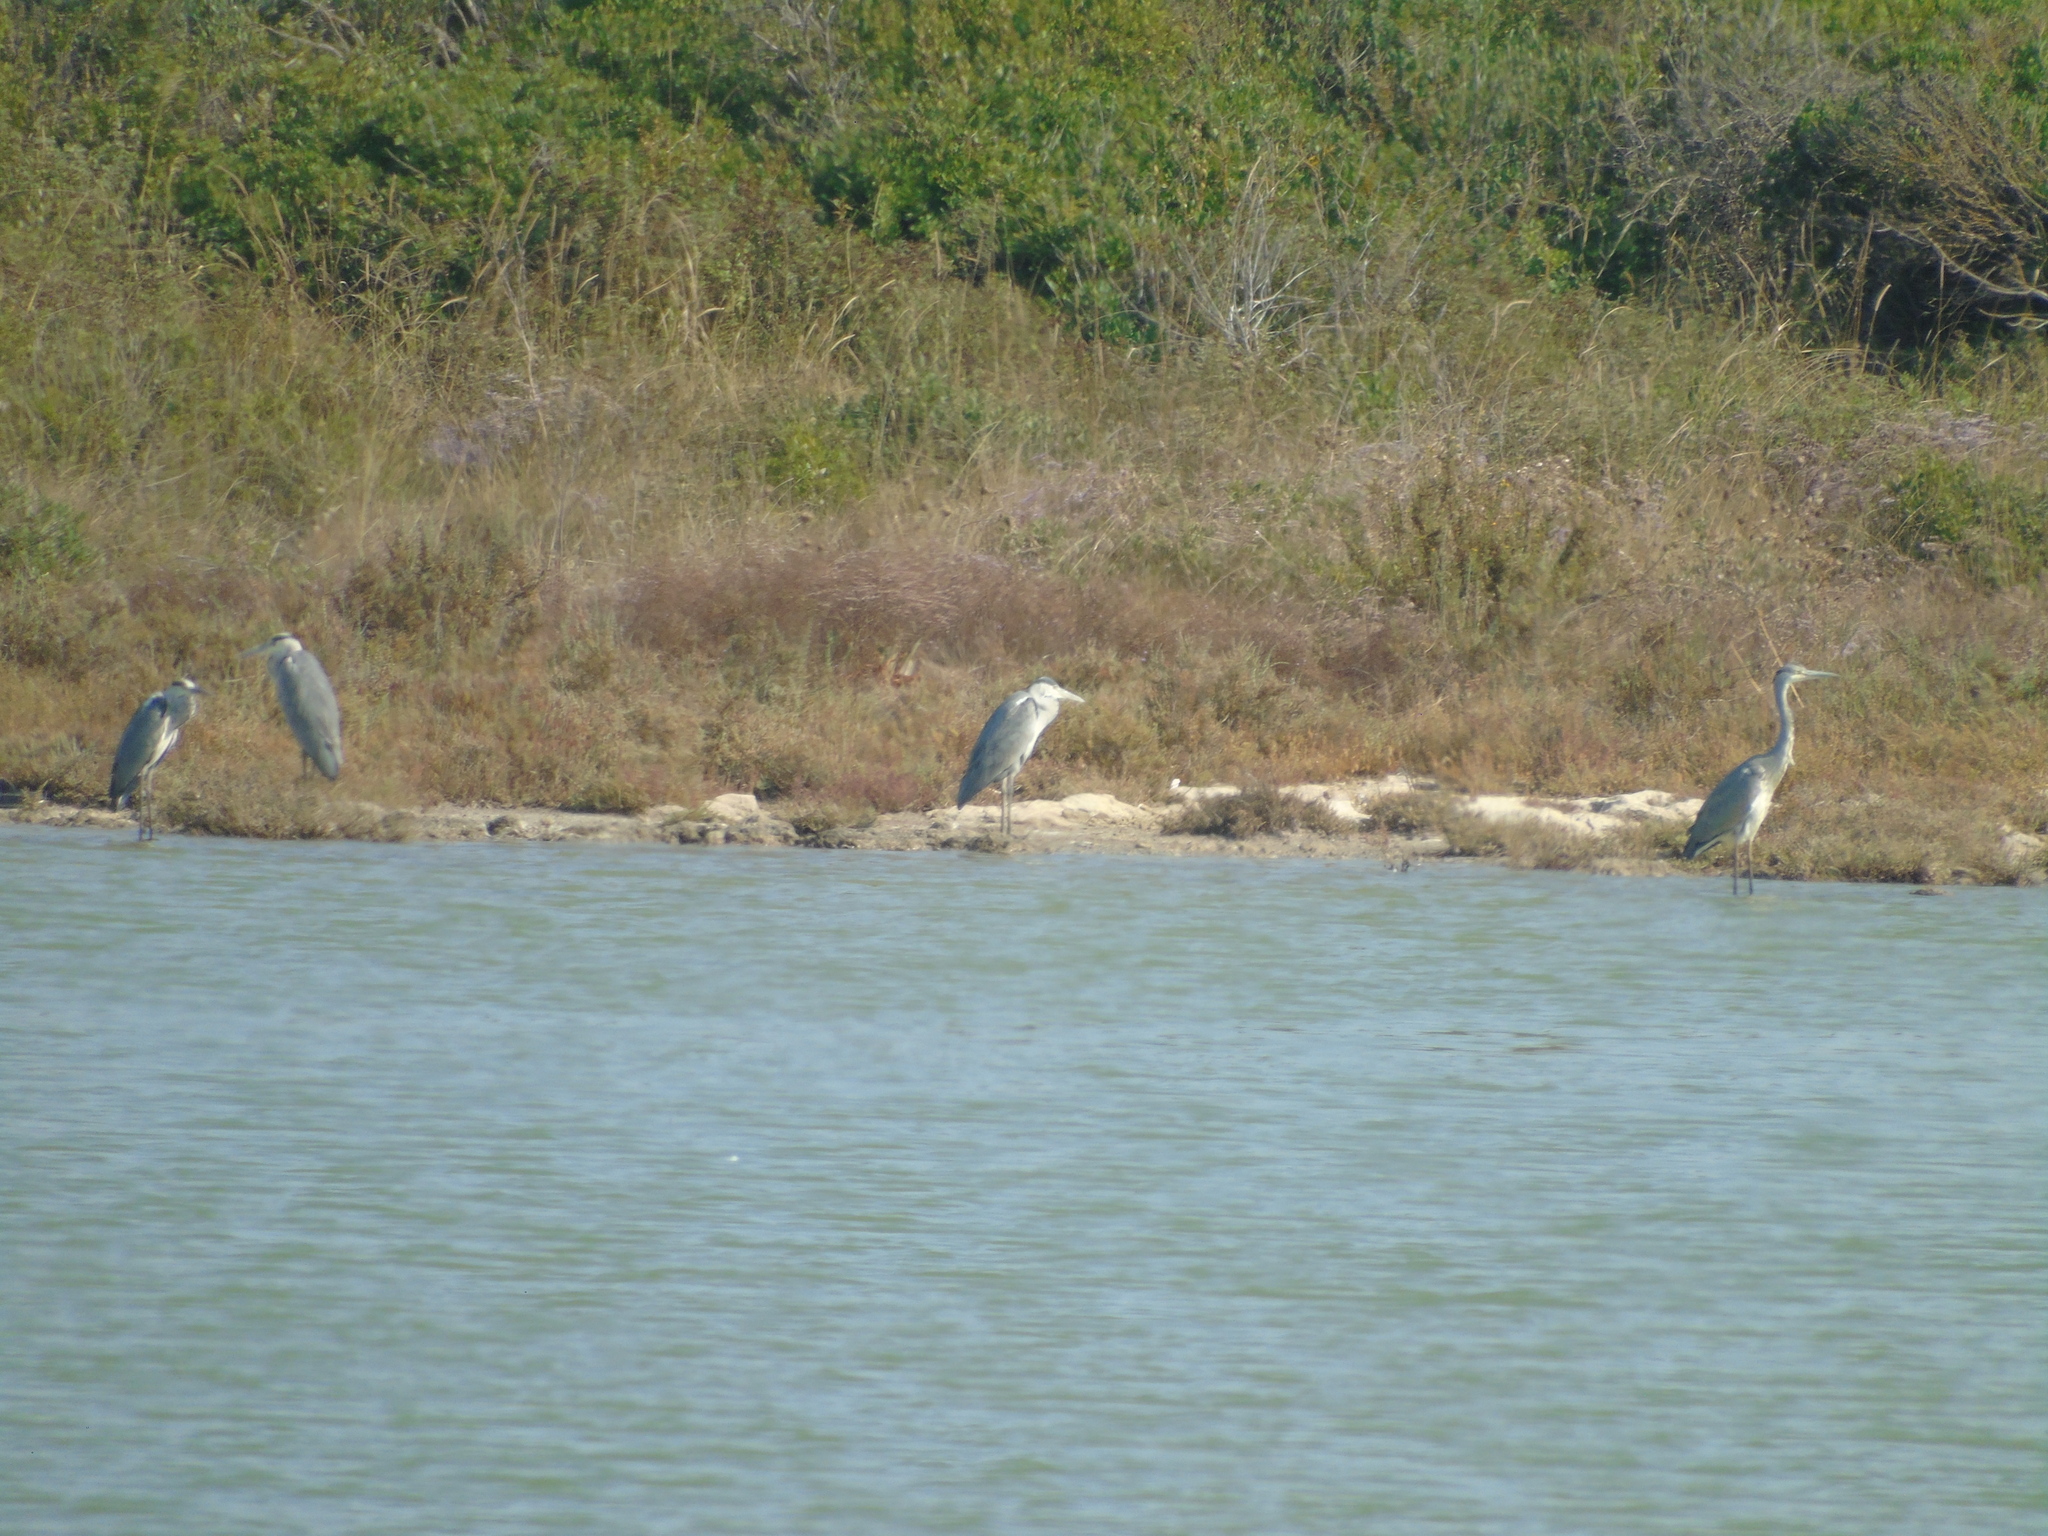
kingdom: Animalia
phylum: Chordata
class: Aves
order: Pelecaniformes
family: Ardeidae
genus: Ardea
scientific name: Ardea cinerea
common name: Grey heron
